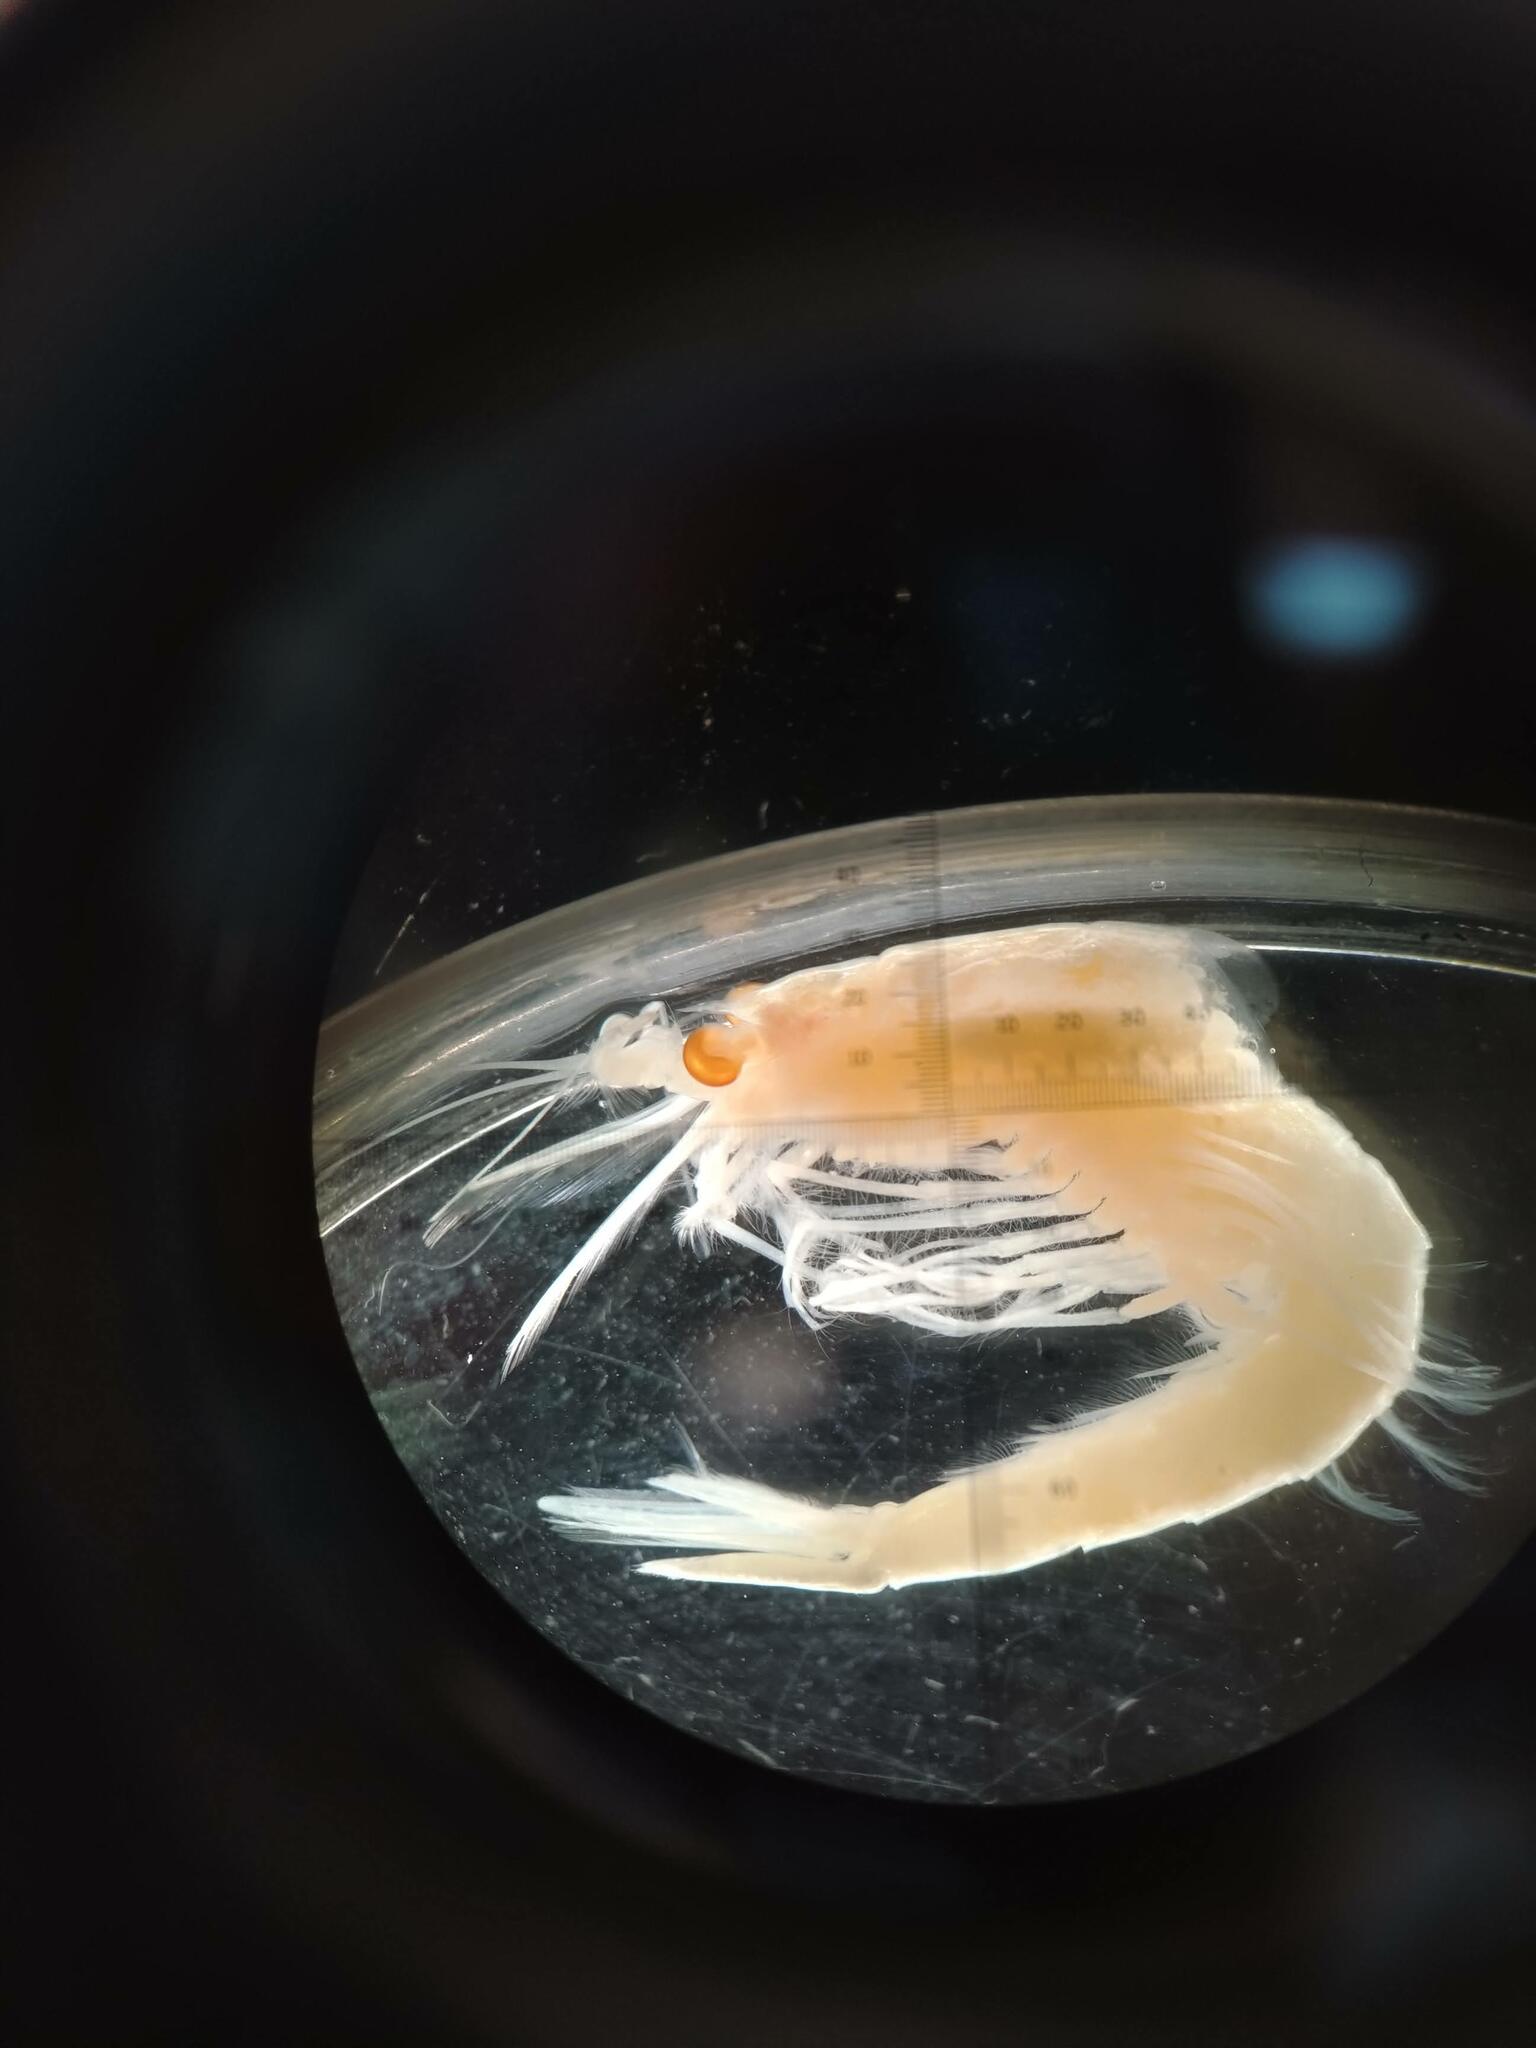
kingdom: Animalia
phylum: Arthropoda
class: Malacostraca
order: Mysida
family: Mysidae
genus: Boreomysis
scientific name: Boreomysis nobilis
